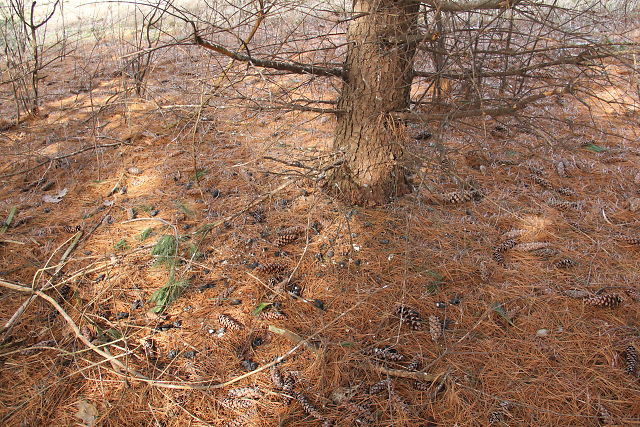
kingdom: Animalia
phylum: Chordata
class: Aves
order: Strigiformes
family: Strigidae
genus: Asio
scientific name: Asio otus
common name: Long-eared owl
